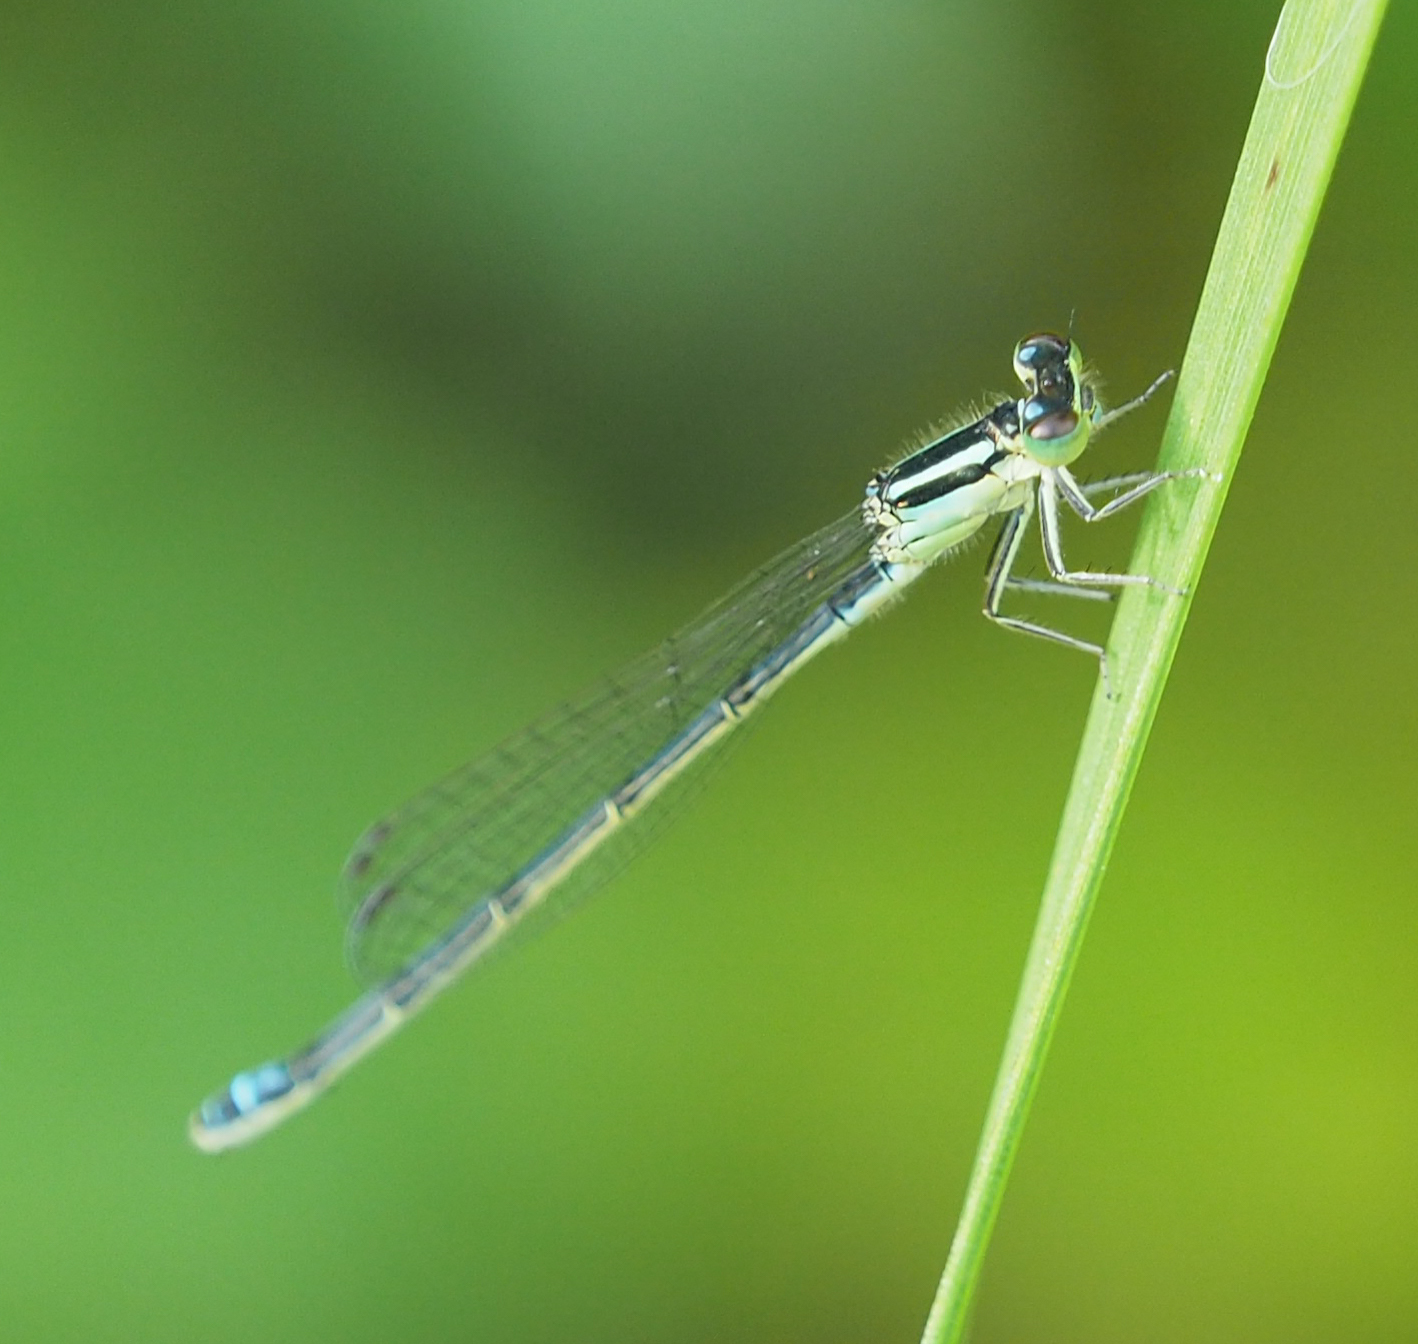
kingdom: Animalia
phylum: Arthropoda
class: Insecta
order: Odonata
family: Coenagrionidae
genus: Ischnura
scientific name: Ischnura verticalis
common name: Eastern forktail
